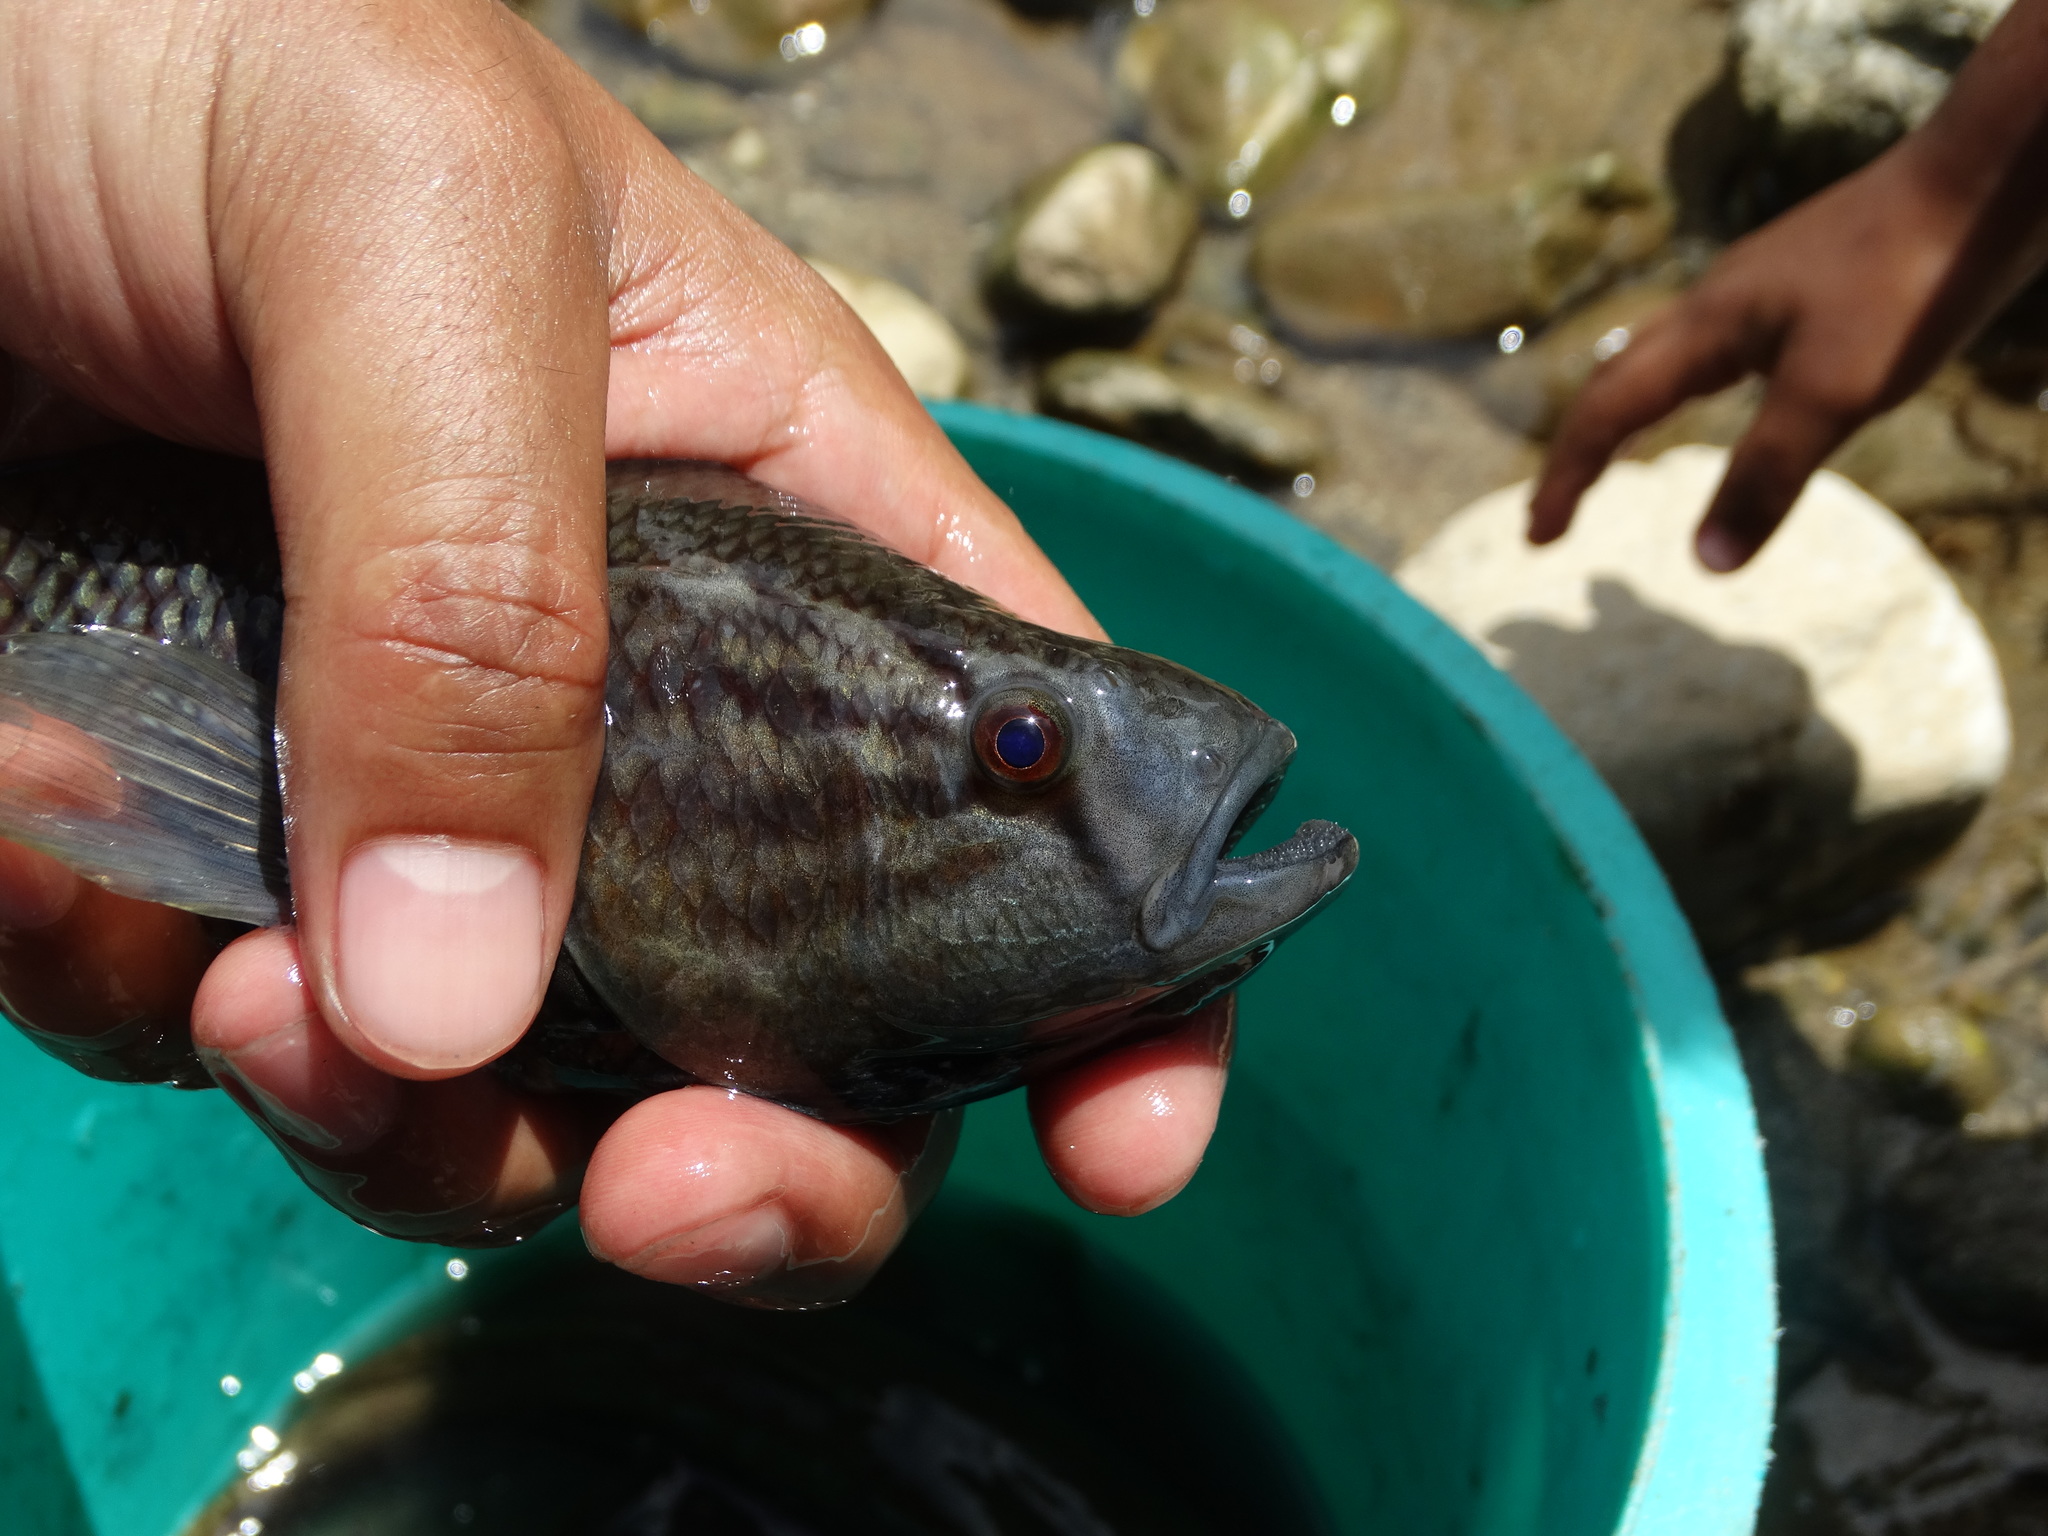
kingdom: Animalia
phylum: Chordata
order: Perciformes
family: Eleotridae
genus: Dormitator
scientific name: Dormitator latifrons
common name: Pacific fat sleeper
